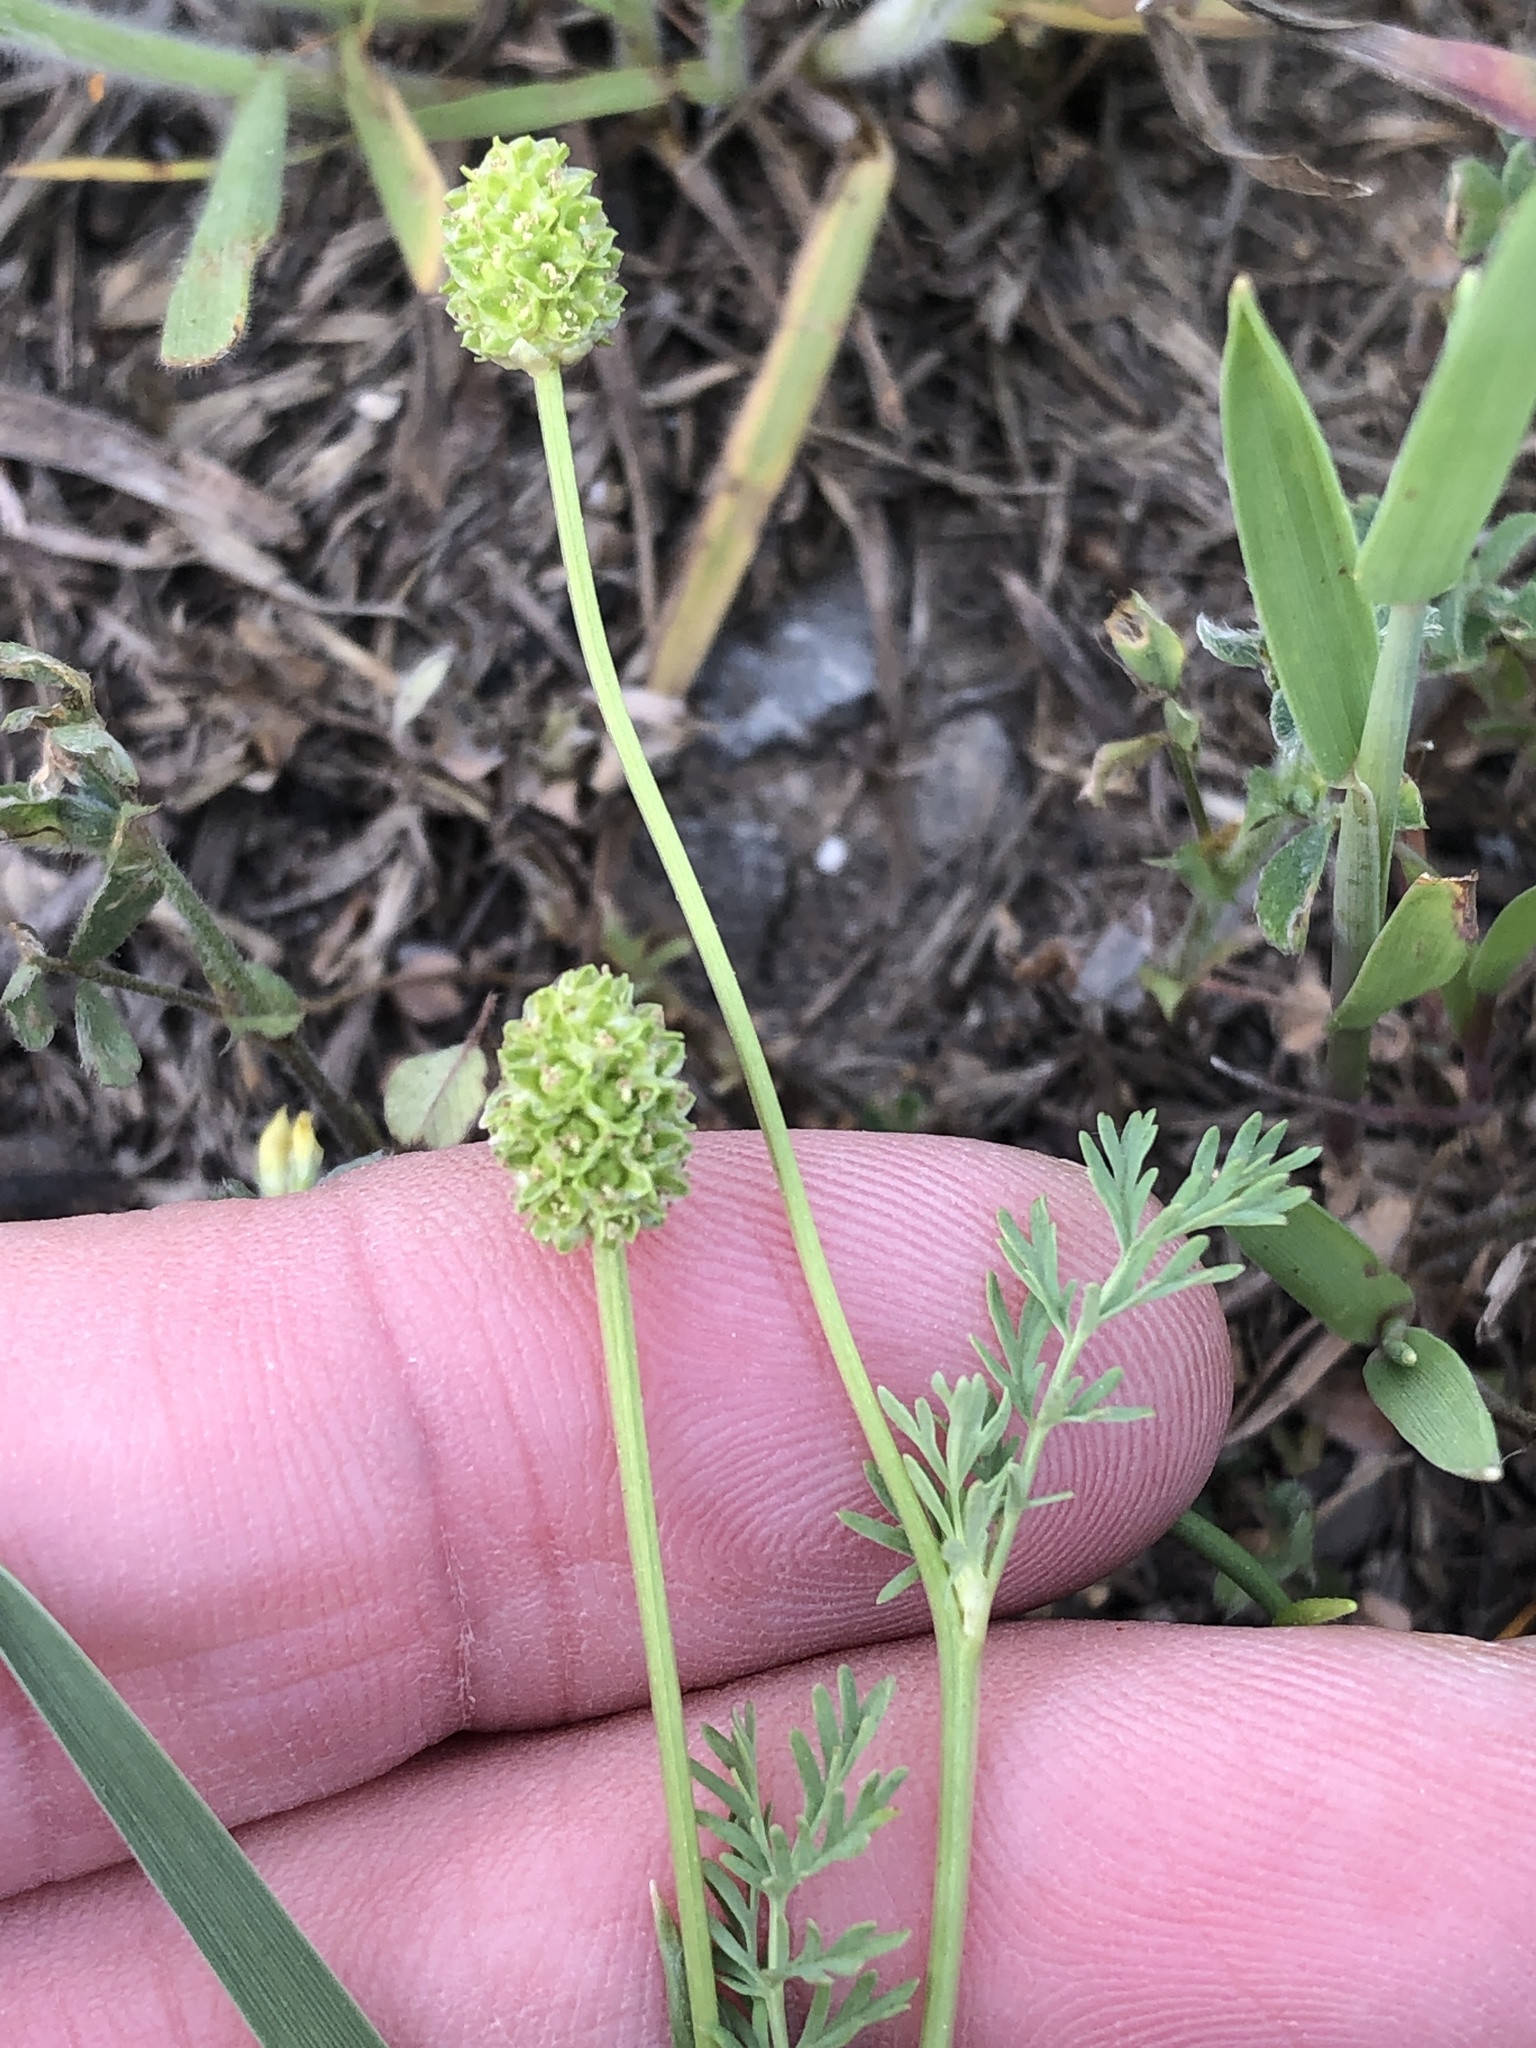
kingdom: Plantae
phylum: Tracheophyta
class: Magnoliopsida
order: Rosales
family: Rosaceae
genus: Poteridium
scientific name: Poteridium annuum
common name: Annual burnet
